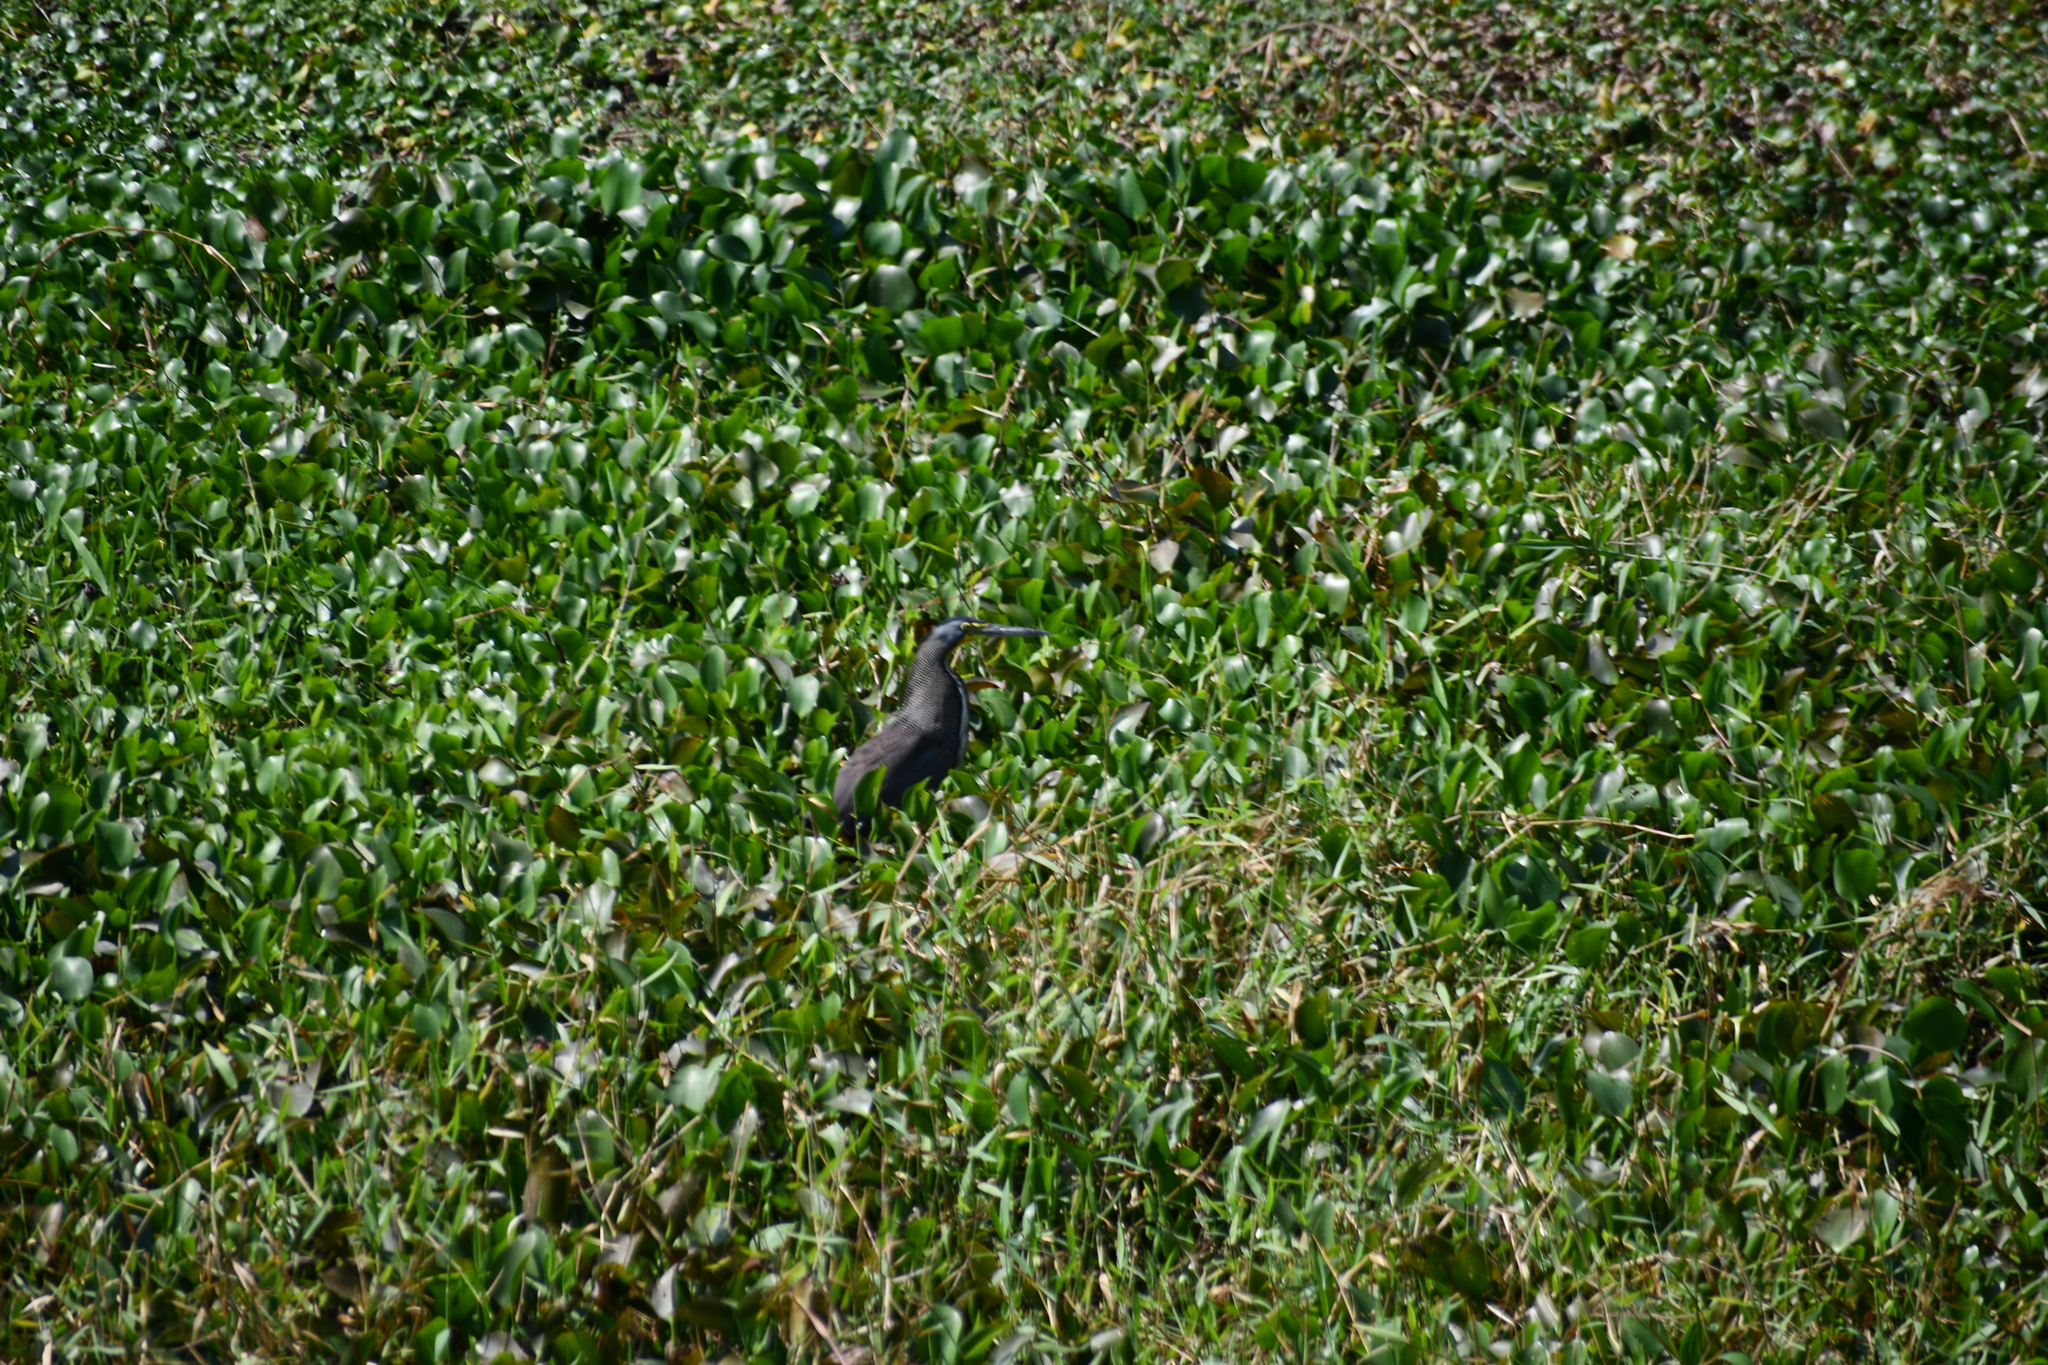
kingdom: Animalia
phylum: Chordata
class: Aves
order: Pelecaniformes
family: Ardeidae
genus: Tigrisoma
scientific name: Tigrisoma mexicanum
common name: Bare-throated tiger-heron
